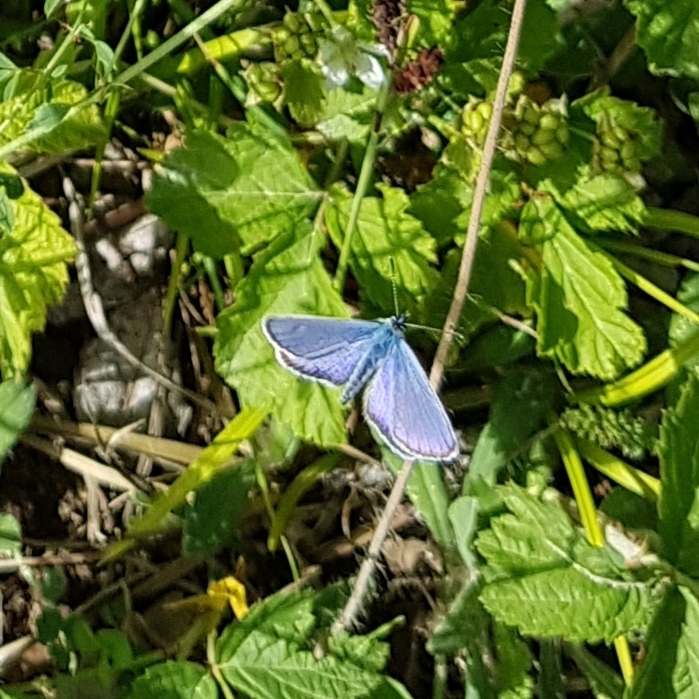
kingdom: Animalia
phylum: Arthropoda
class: Insecta
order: Lepidoptera
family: Lycaenidae
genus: Lycaeides
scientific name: Lycaeides idas
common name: Northern blue
